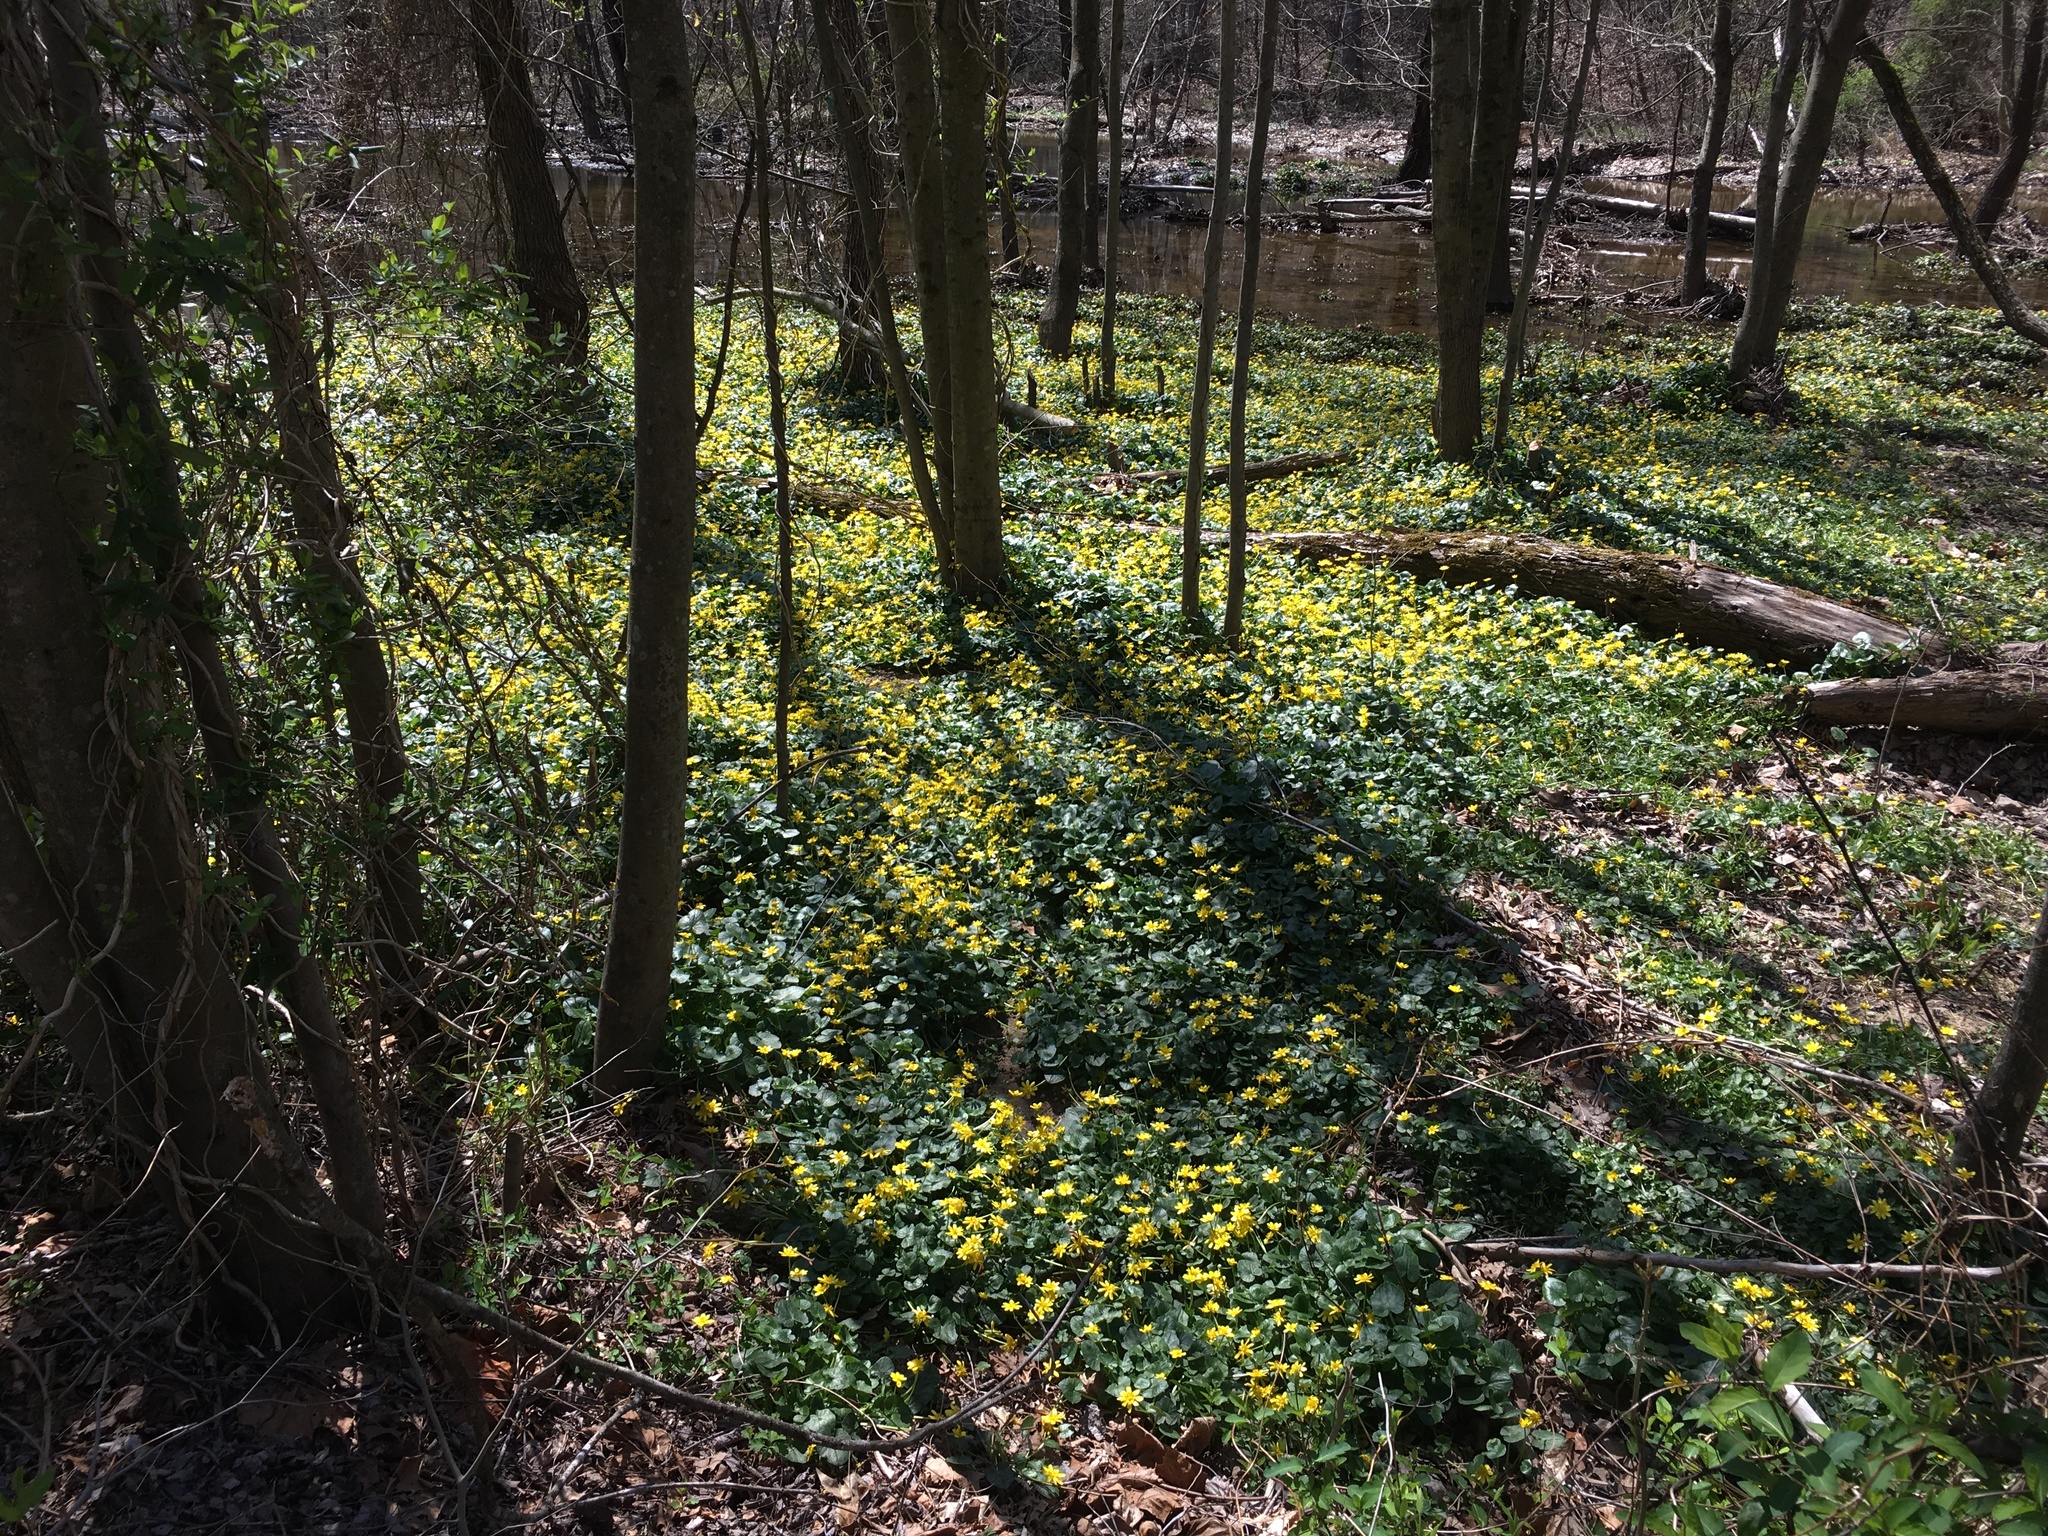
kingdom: Plantae
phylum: Tracheophyta
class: Magnoliopsida
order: Ranunculales
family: Ranunculaceae
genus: Ficaria
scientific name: Ficaria verna
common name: Lesser celandine
